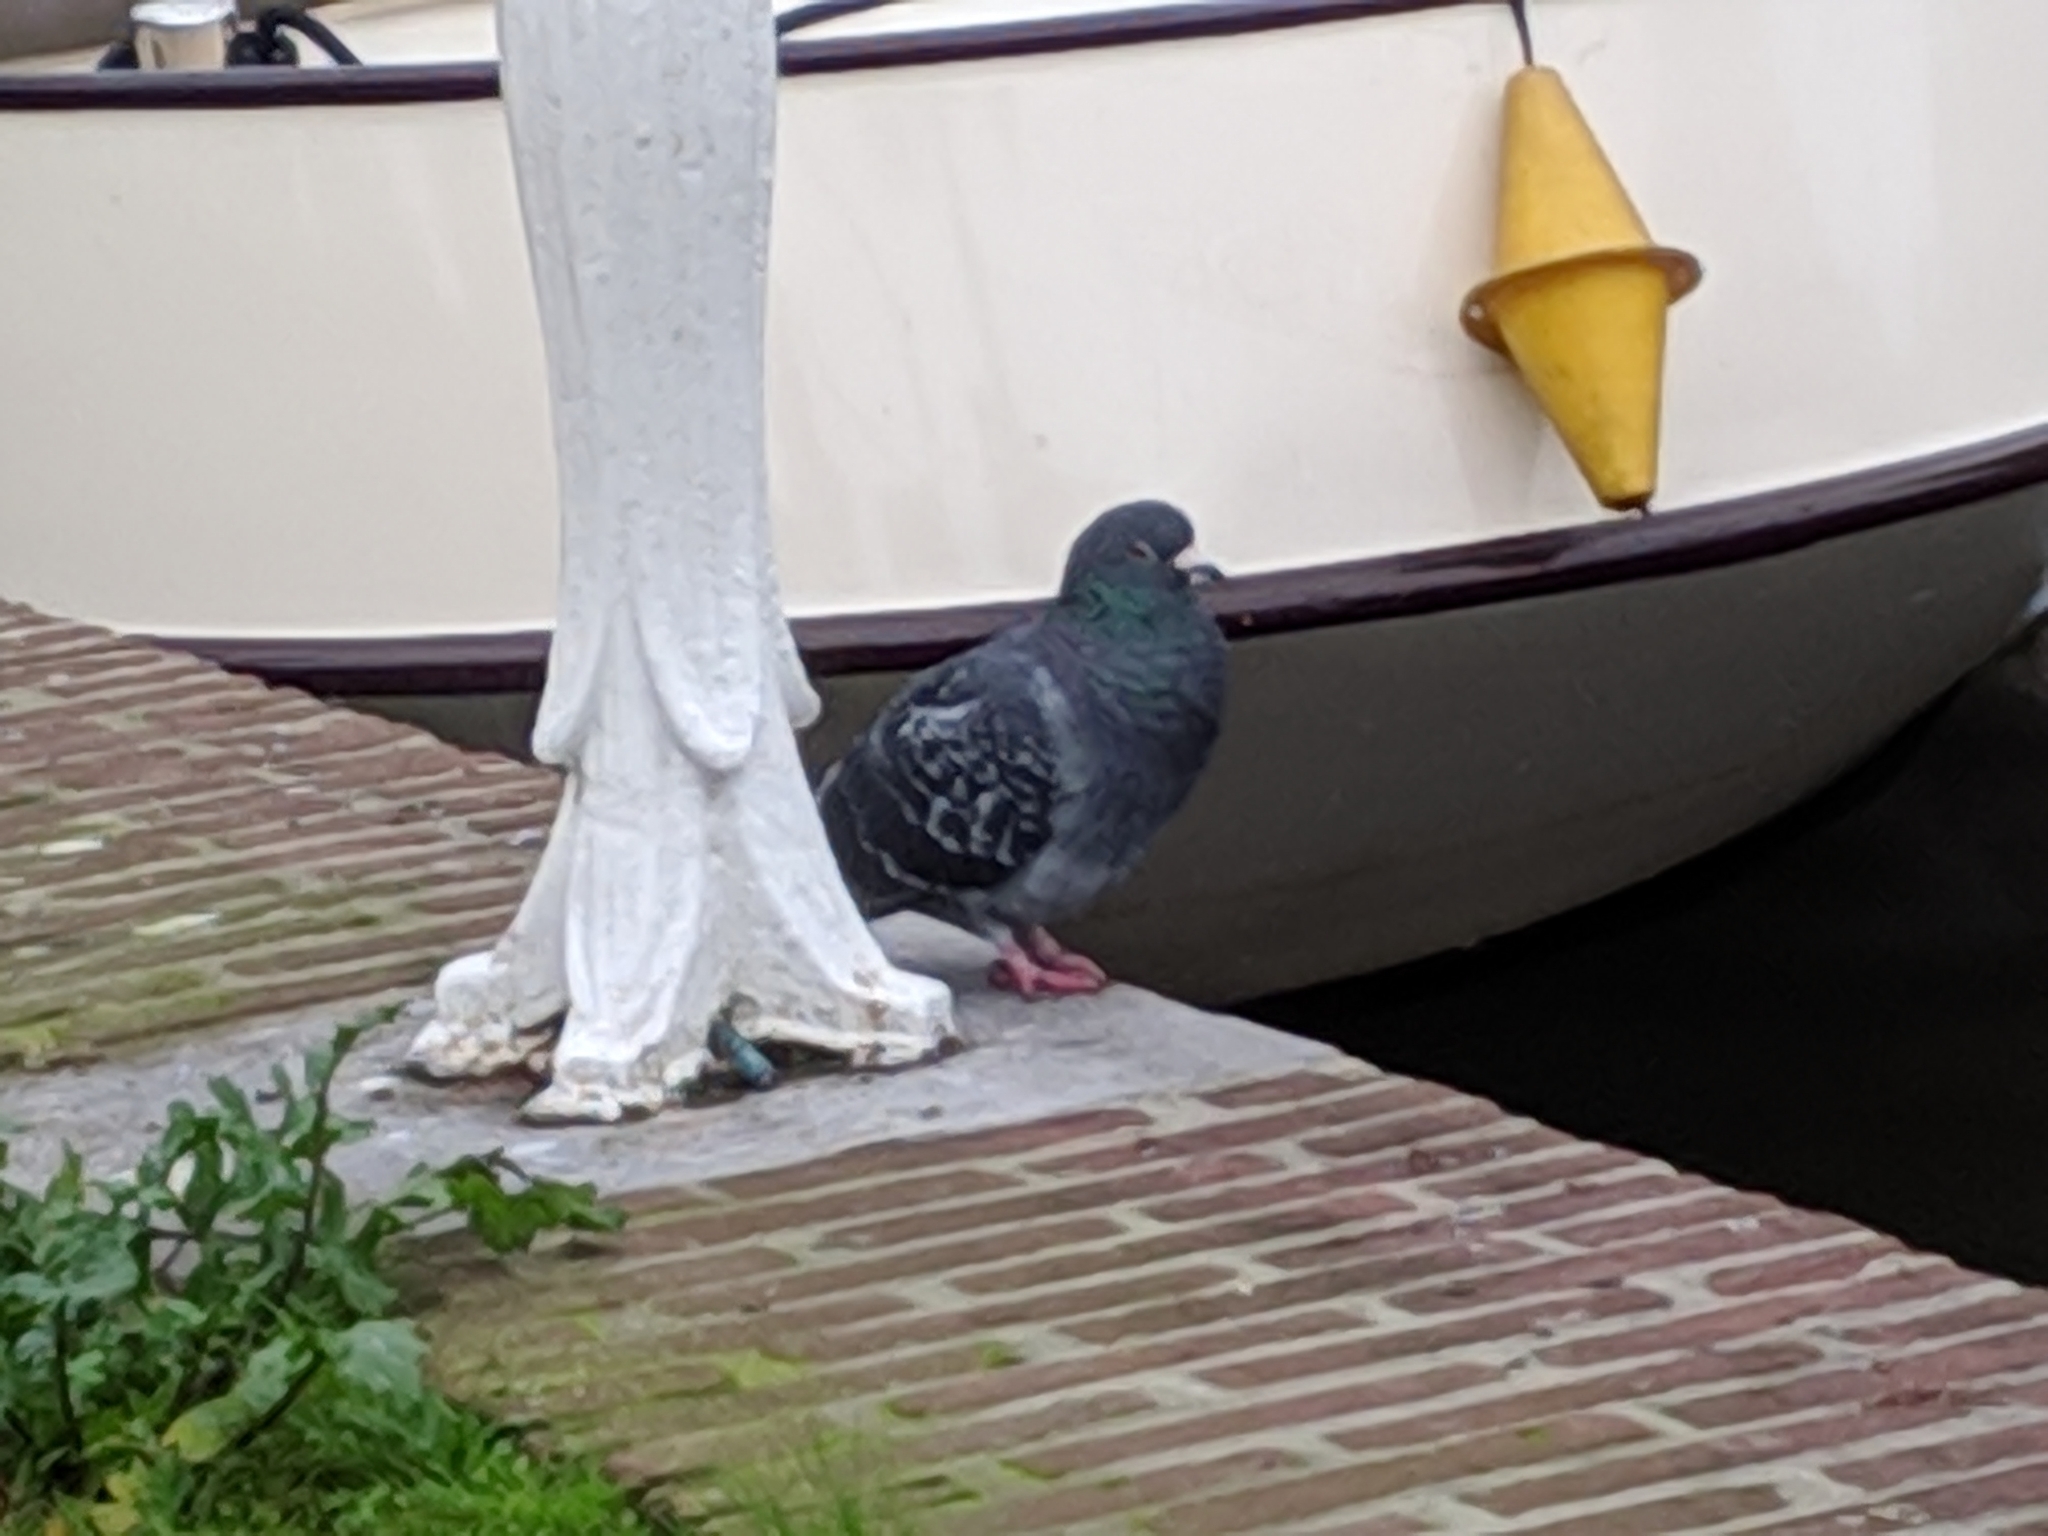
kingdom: Animalia
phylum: Chordata
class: Aves
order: Columbiformes
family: Columbidae
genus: Columba
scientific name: Columba livia
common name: Rock pigeon
